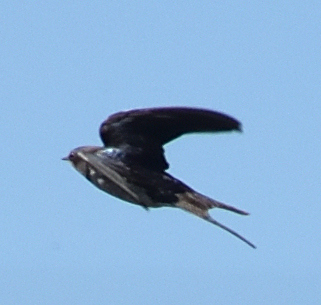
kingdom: Animalia
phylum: Chordata
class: Aves
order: Passeriformes
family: Hirundinidae
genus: Hirundo
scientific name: Hirundo rustica
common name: Barn swallow
